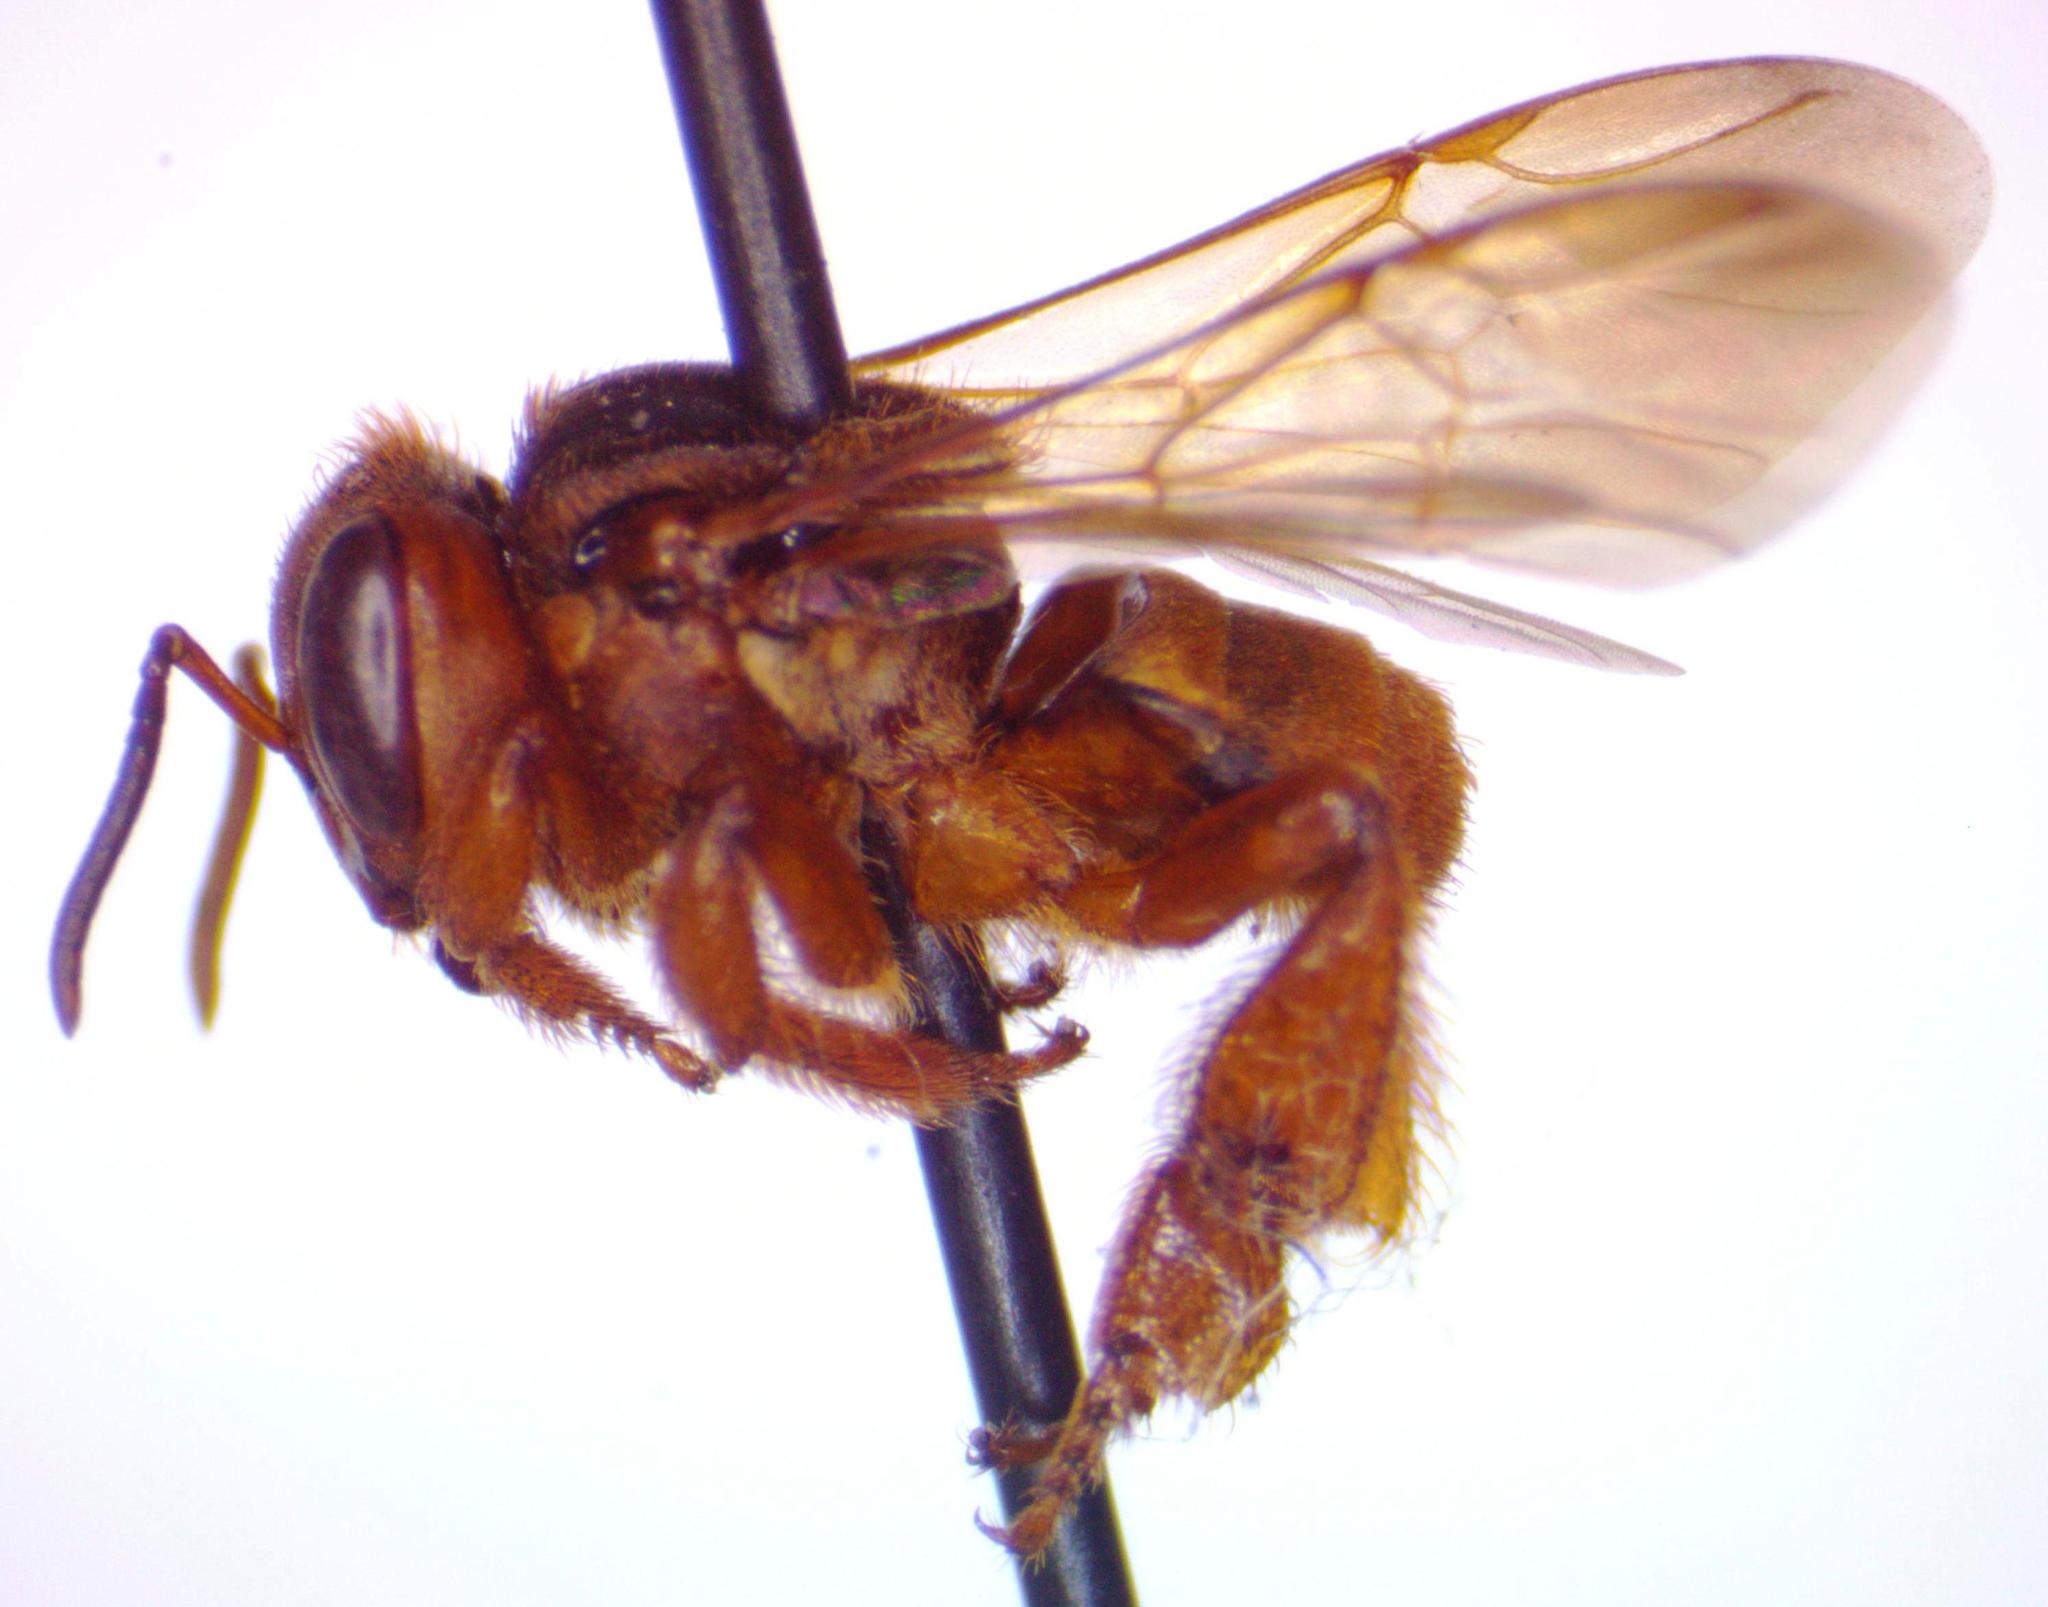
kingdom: Animalia
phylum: Arthropoda
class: Insecta
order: Hymenoptera
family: Apidae
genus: Scaptotrigona
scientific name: Scaptotrigona pectoralis
